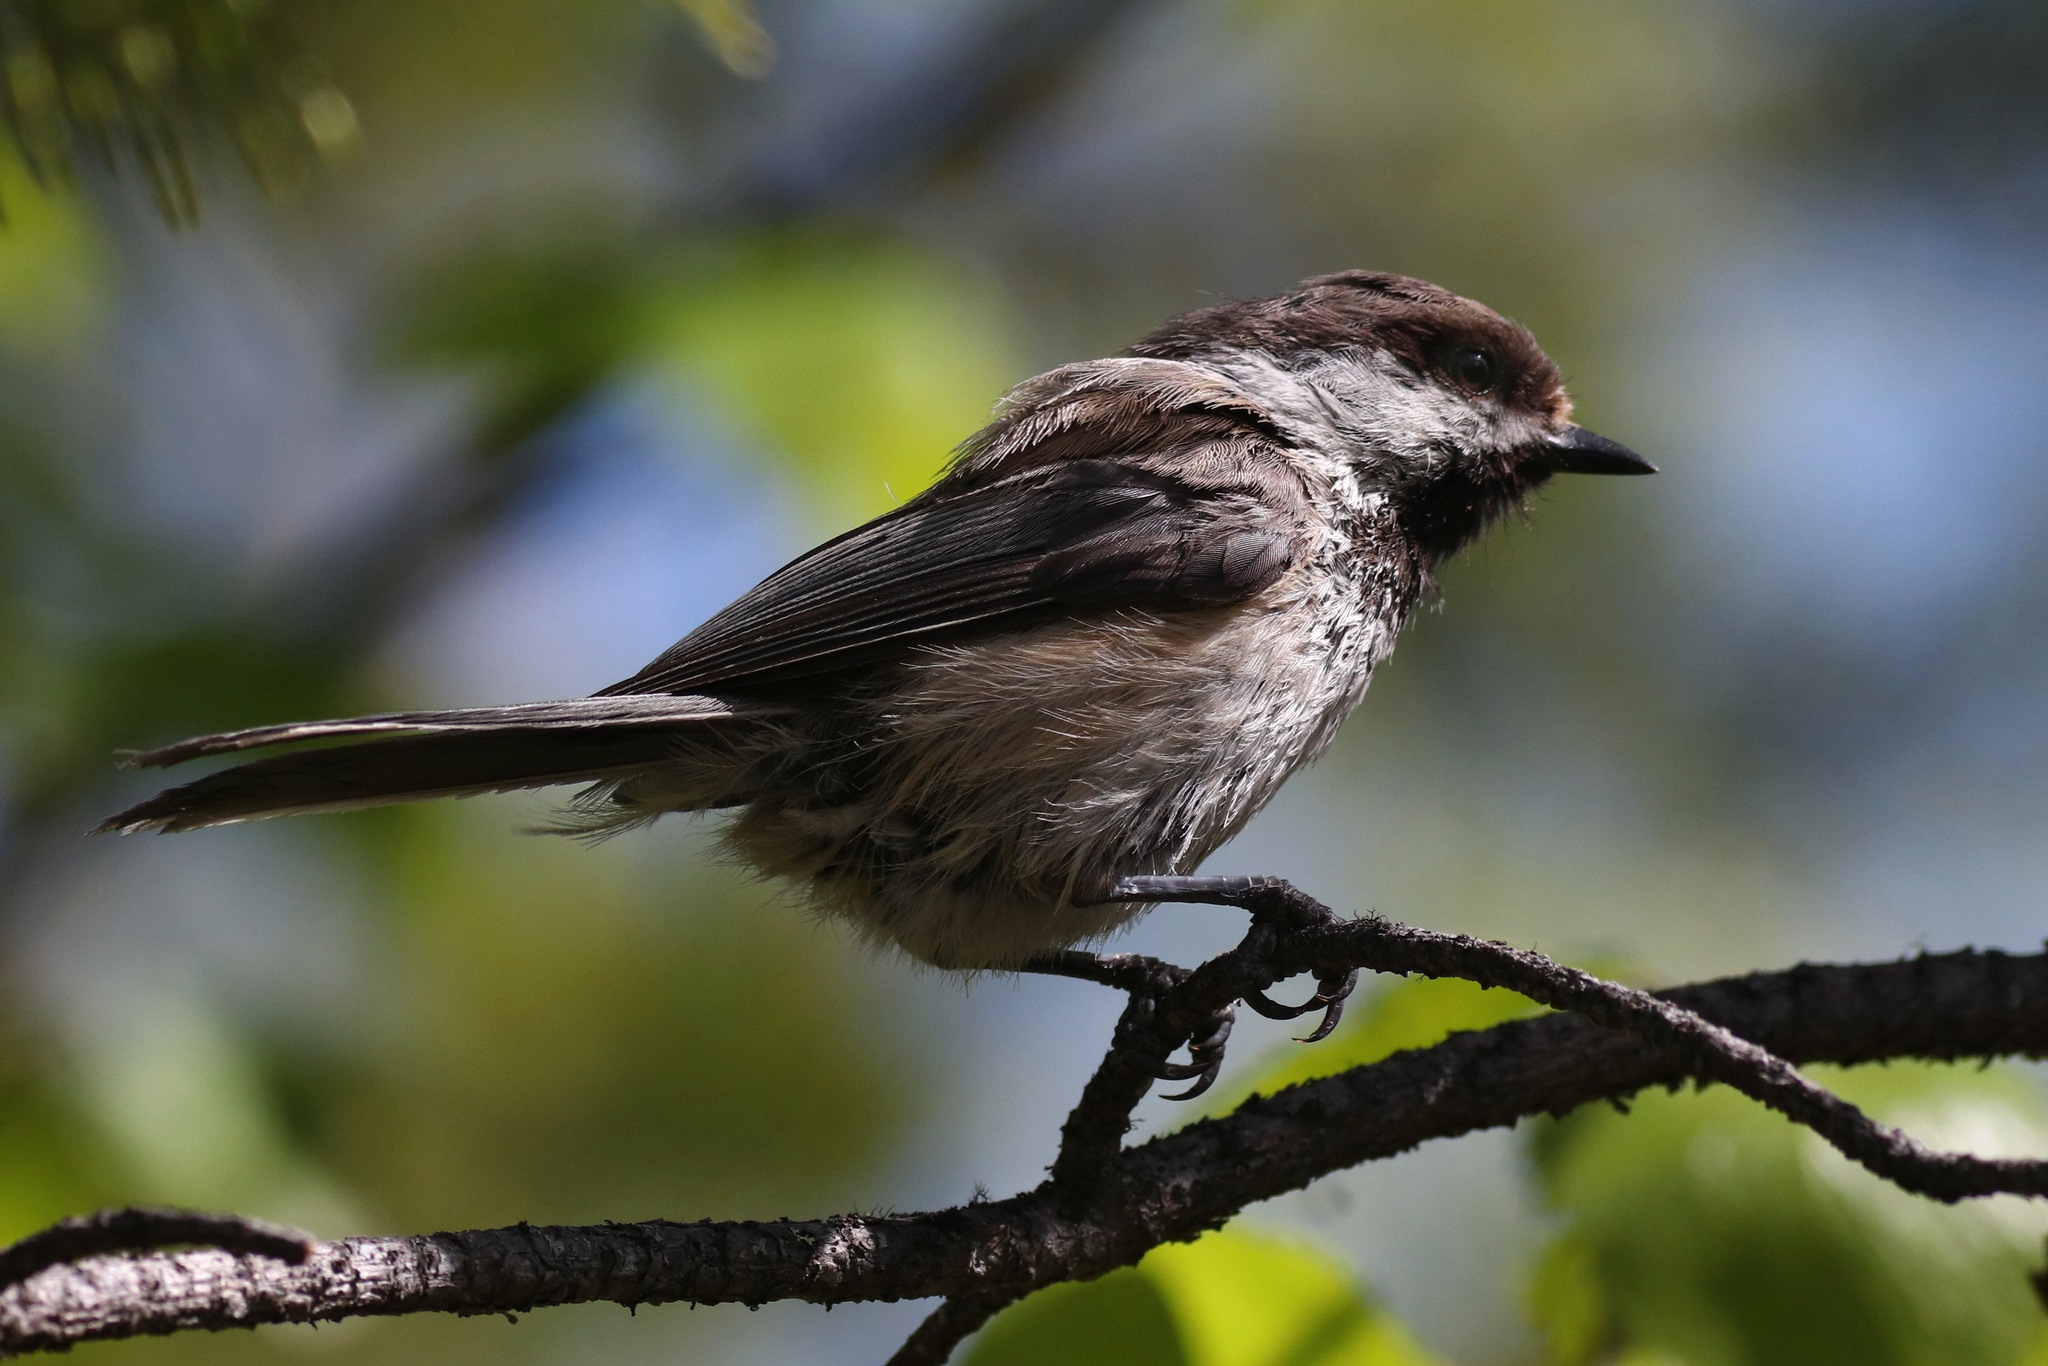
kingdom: Animalia
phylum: Chordata
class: Aves
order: Passeriformes
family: Paridae
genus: Poecile
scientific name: Poecile cinctus
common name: Gray-headed chickadee
